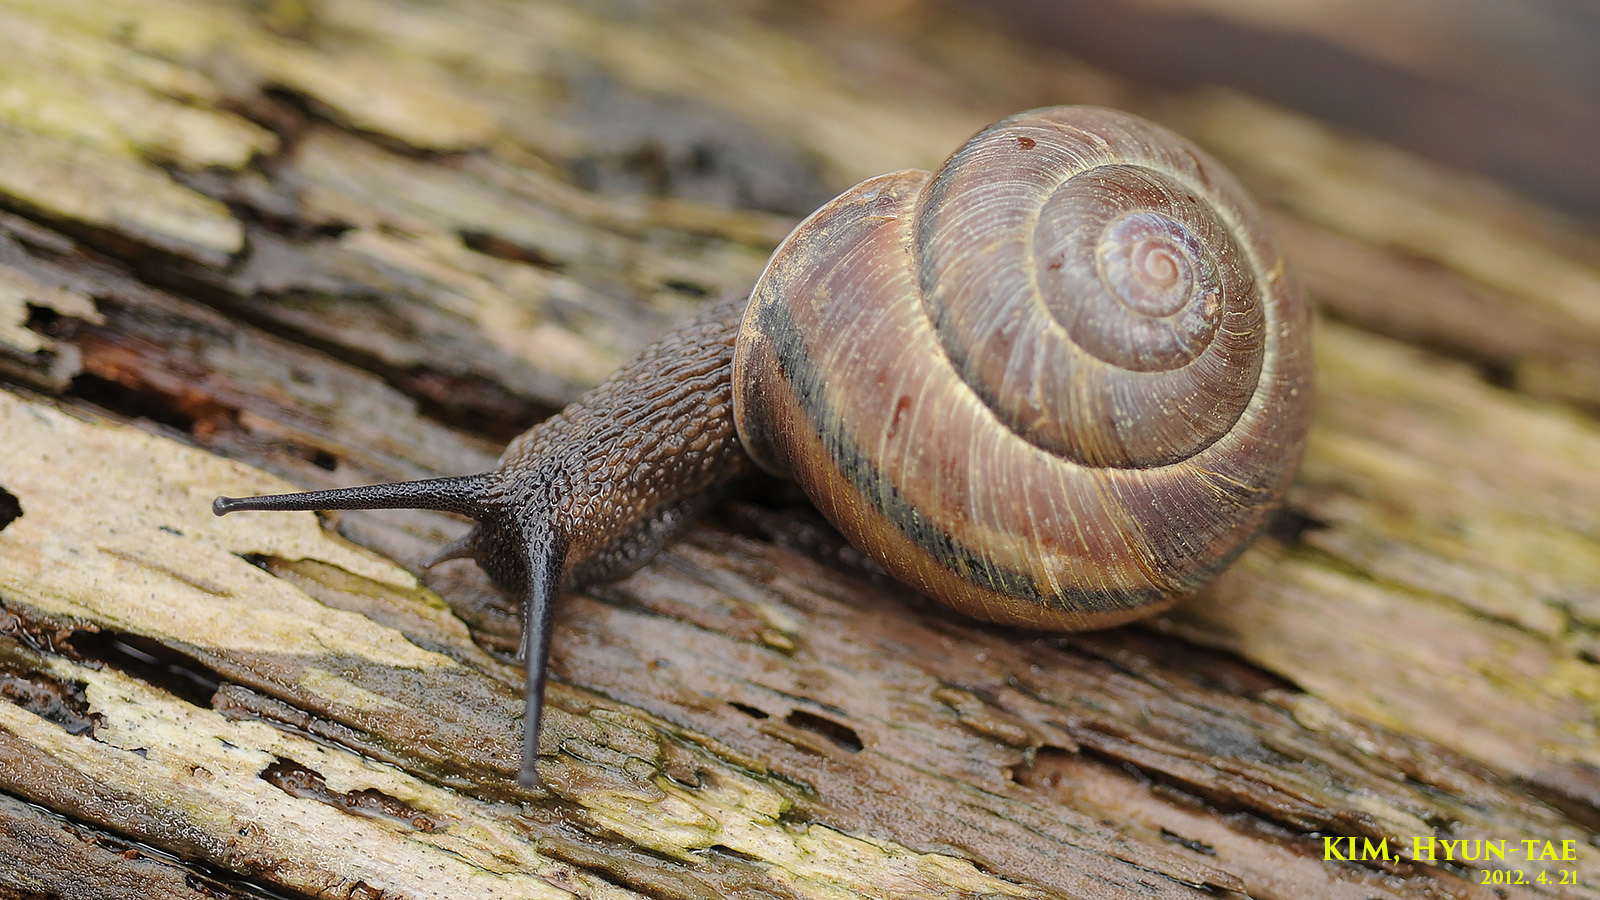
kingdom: Animalia
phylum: Mollusca
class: Gastropoda
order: Stylommatophora
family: Camaenidae
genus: Euhadra
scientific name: Euhadra herklotsi
